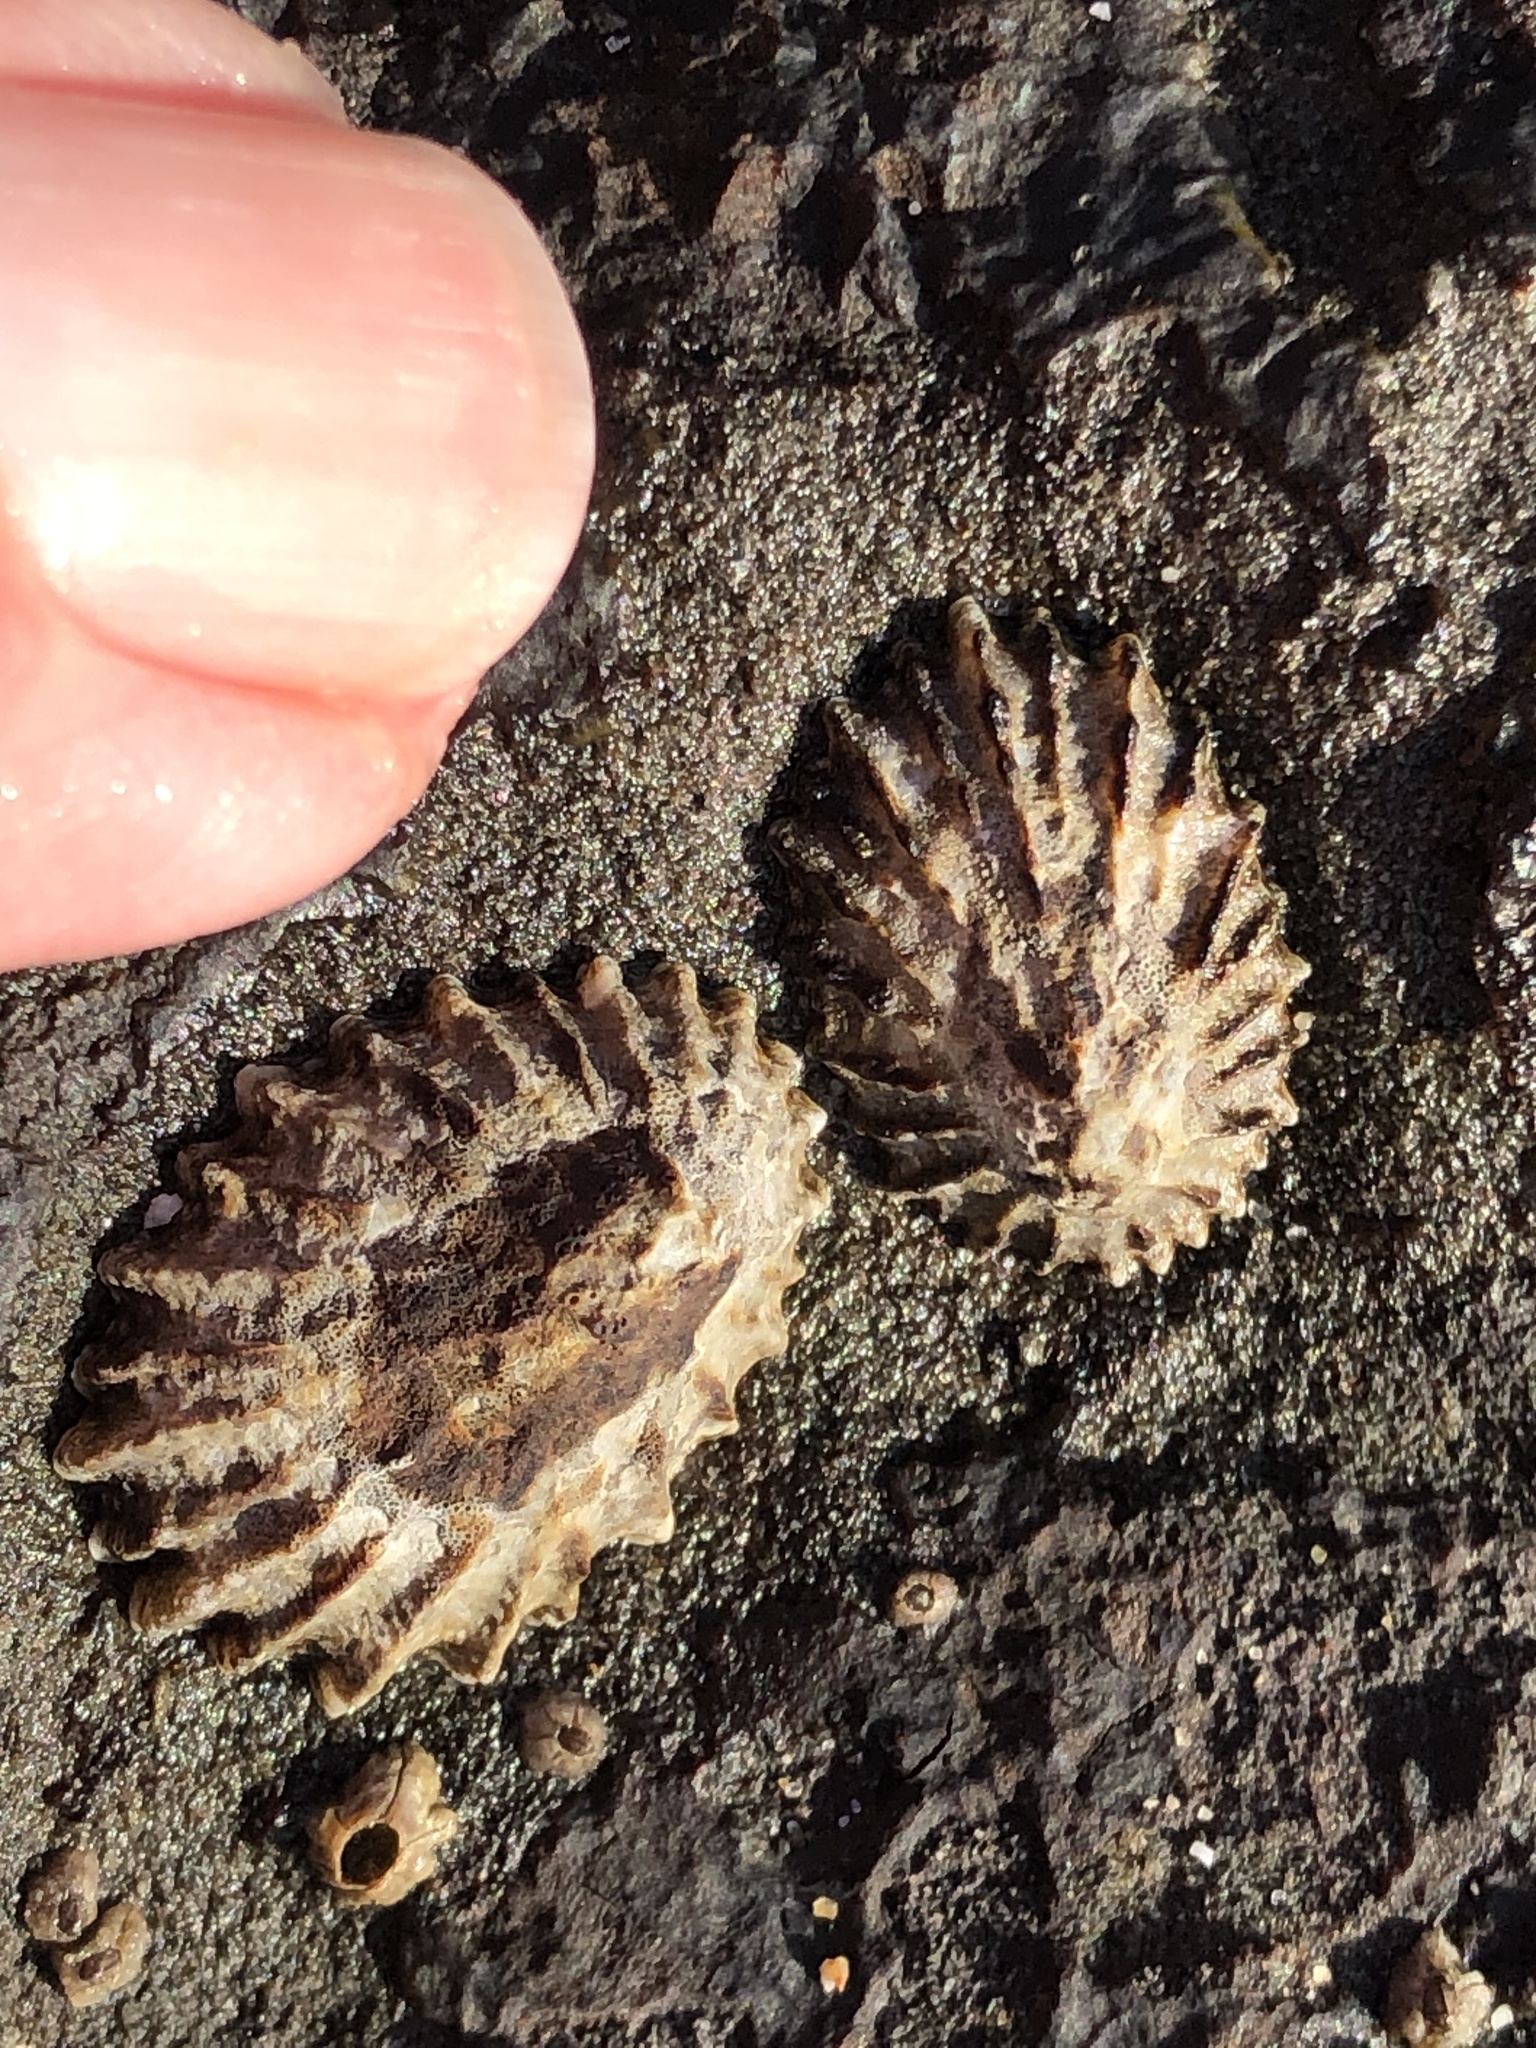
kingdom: Animalia
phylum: Mollusca
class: Gastropoda
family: Lottiidae
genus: Lottia
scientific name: Lottia scabra
